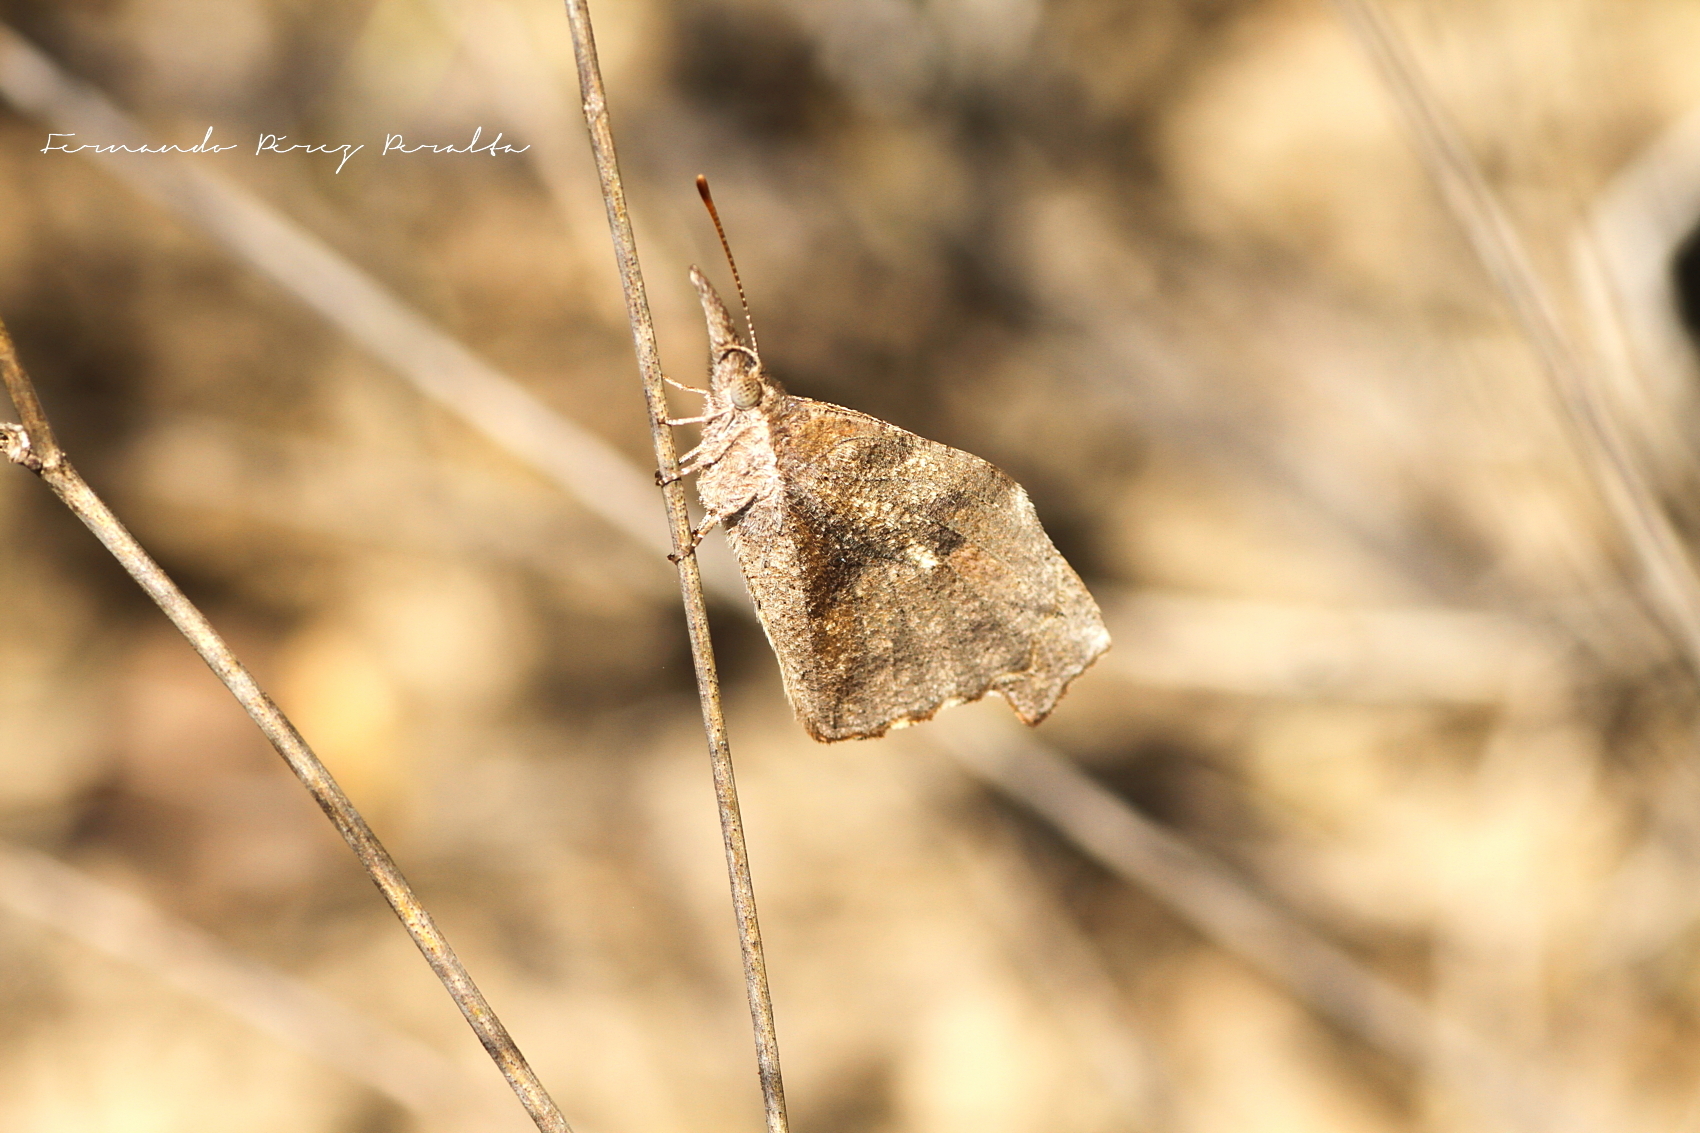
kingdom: Animalia
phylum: Arthropoda
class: Insecta
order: Lepidoptera
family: Nymphalidae
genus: Libytheana
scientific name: Libytheana carinenta
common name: American snout
